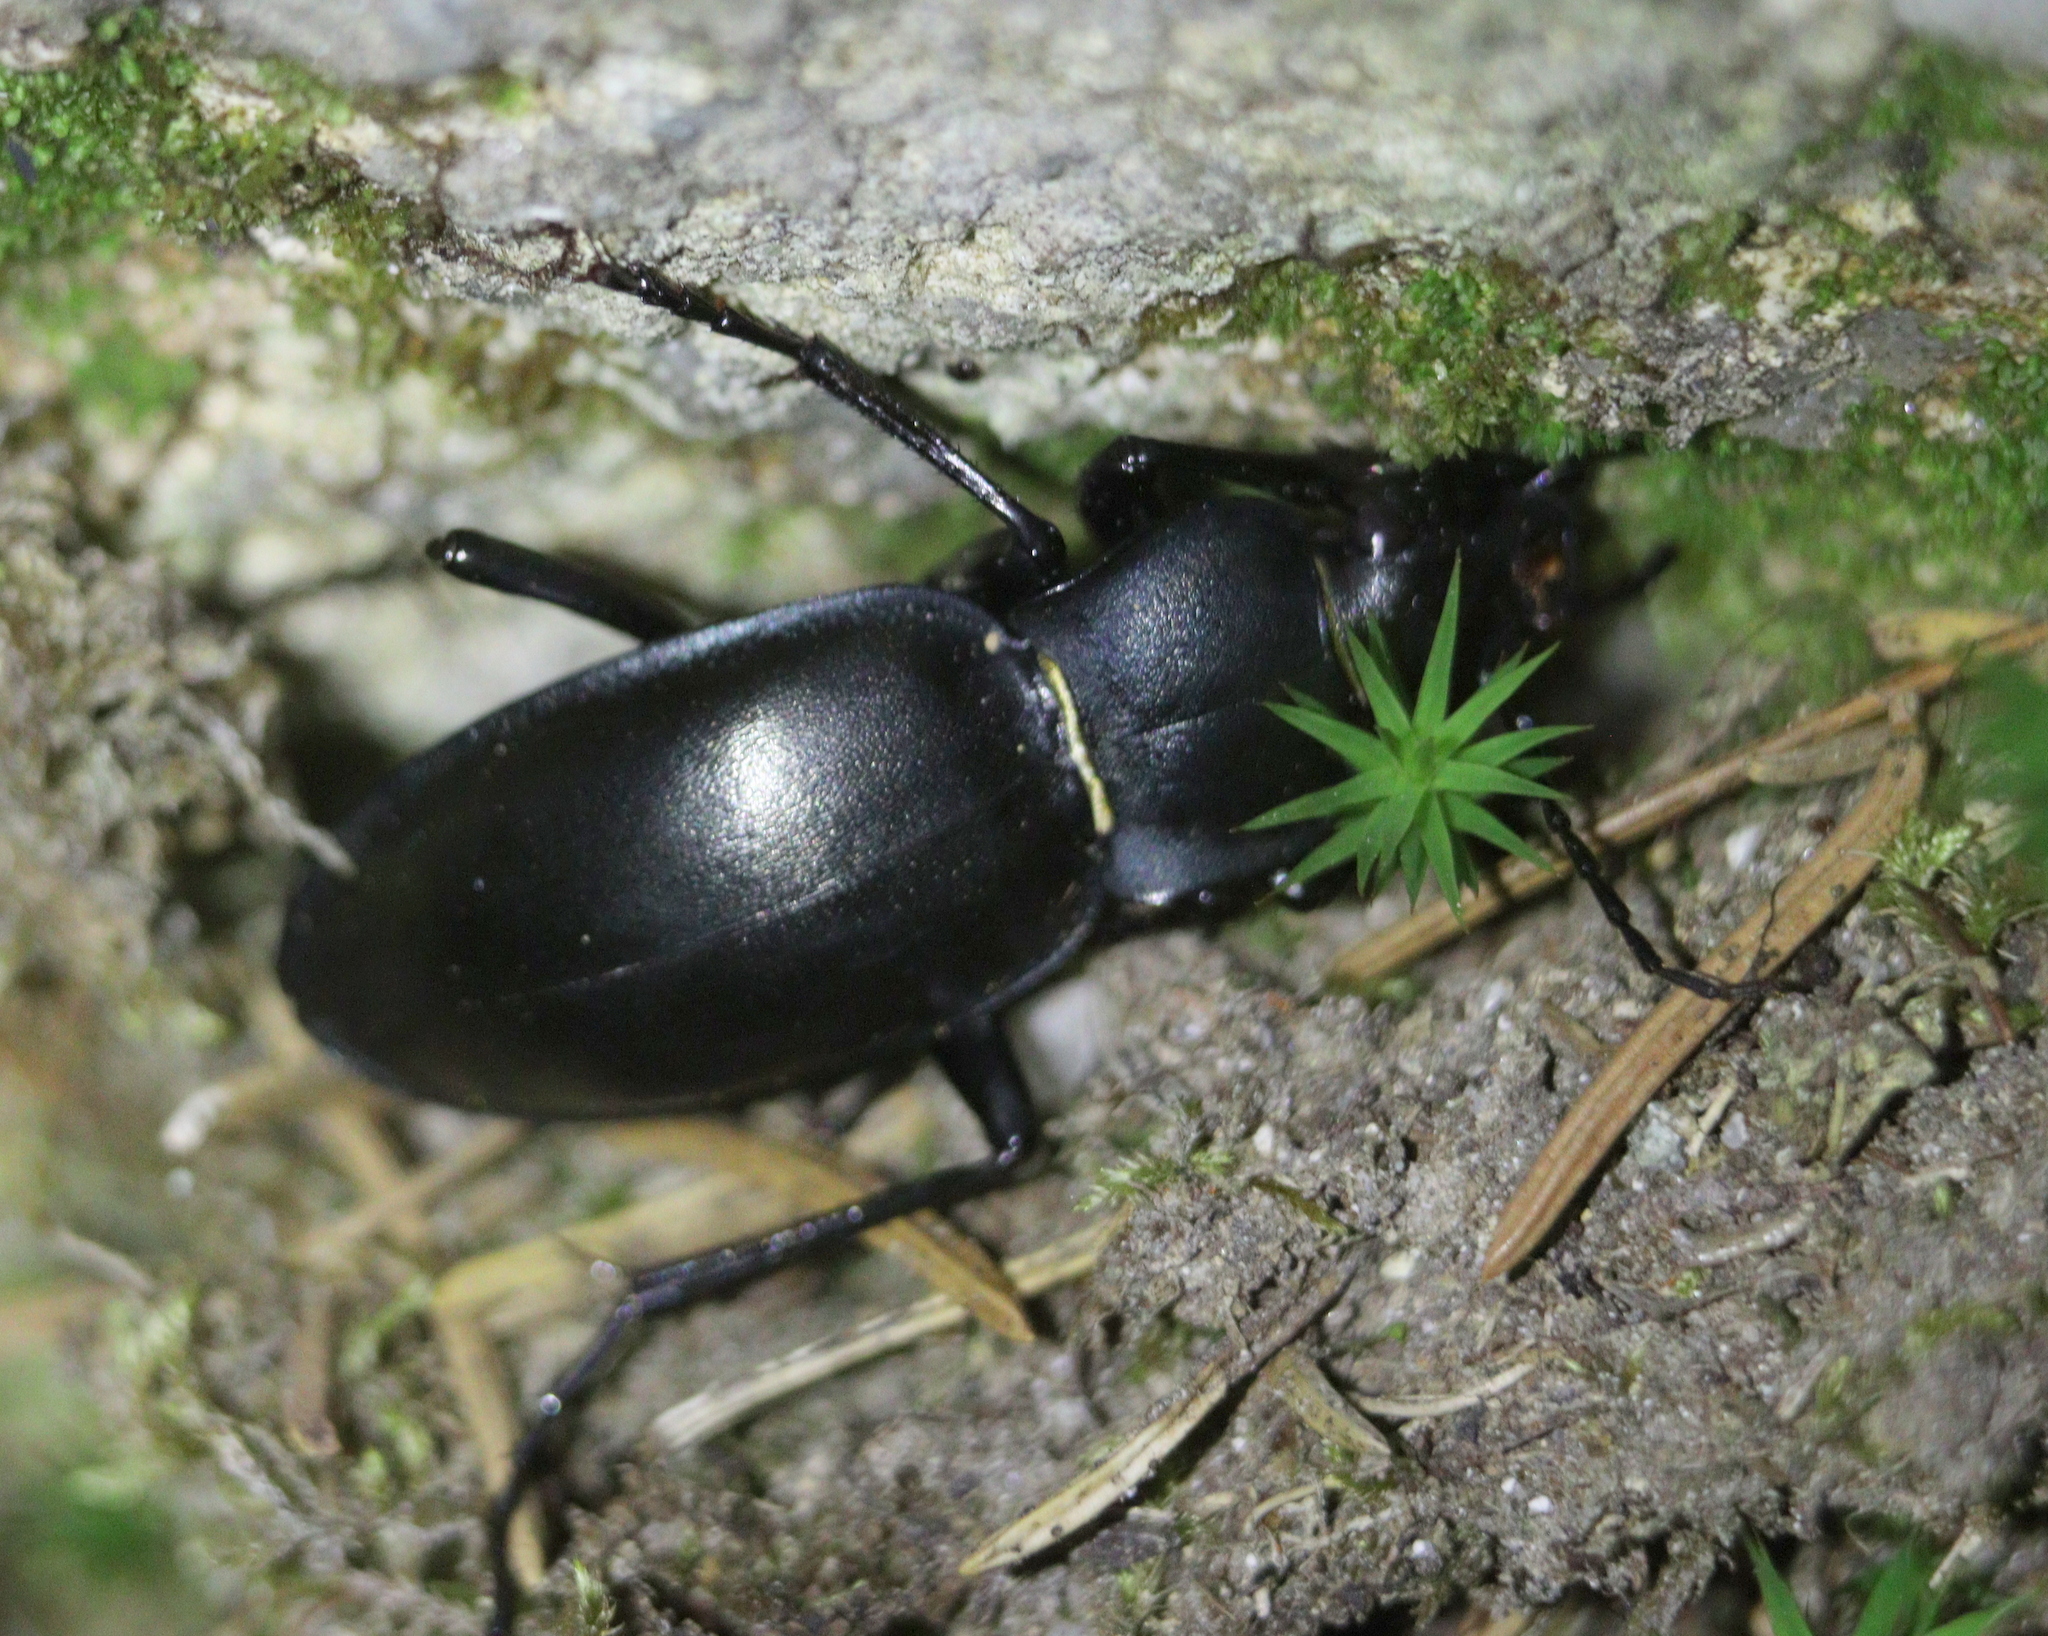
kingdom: Animalia
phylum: Arthropoda
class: Insecta
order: Coleoptera
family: Carabidae
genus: Carabus
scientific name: Carabus glabratus
